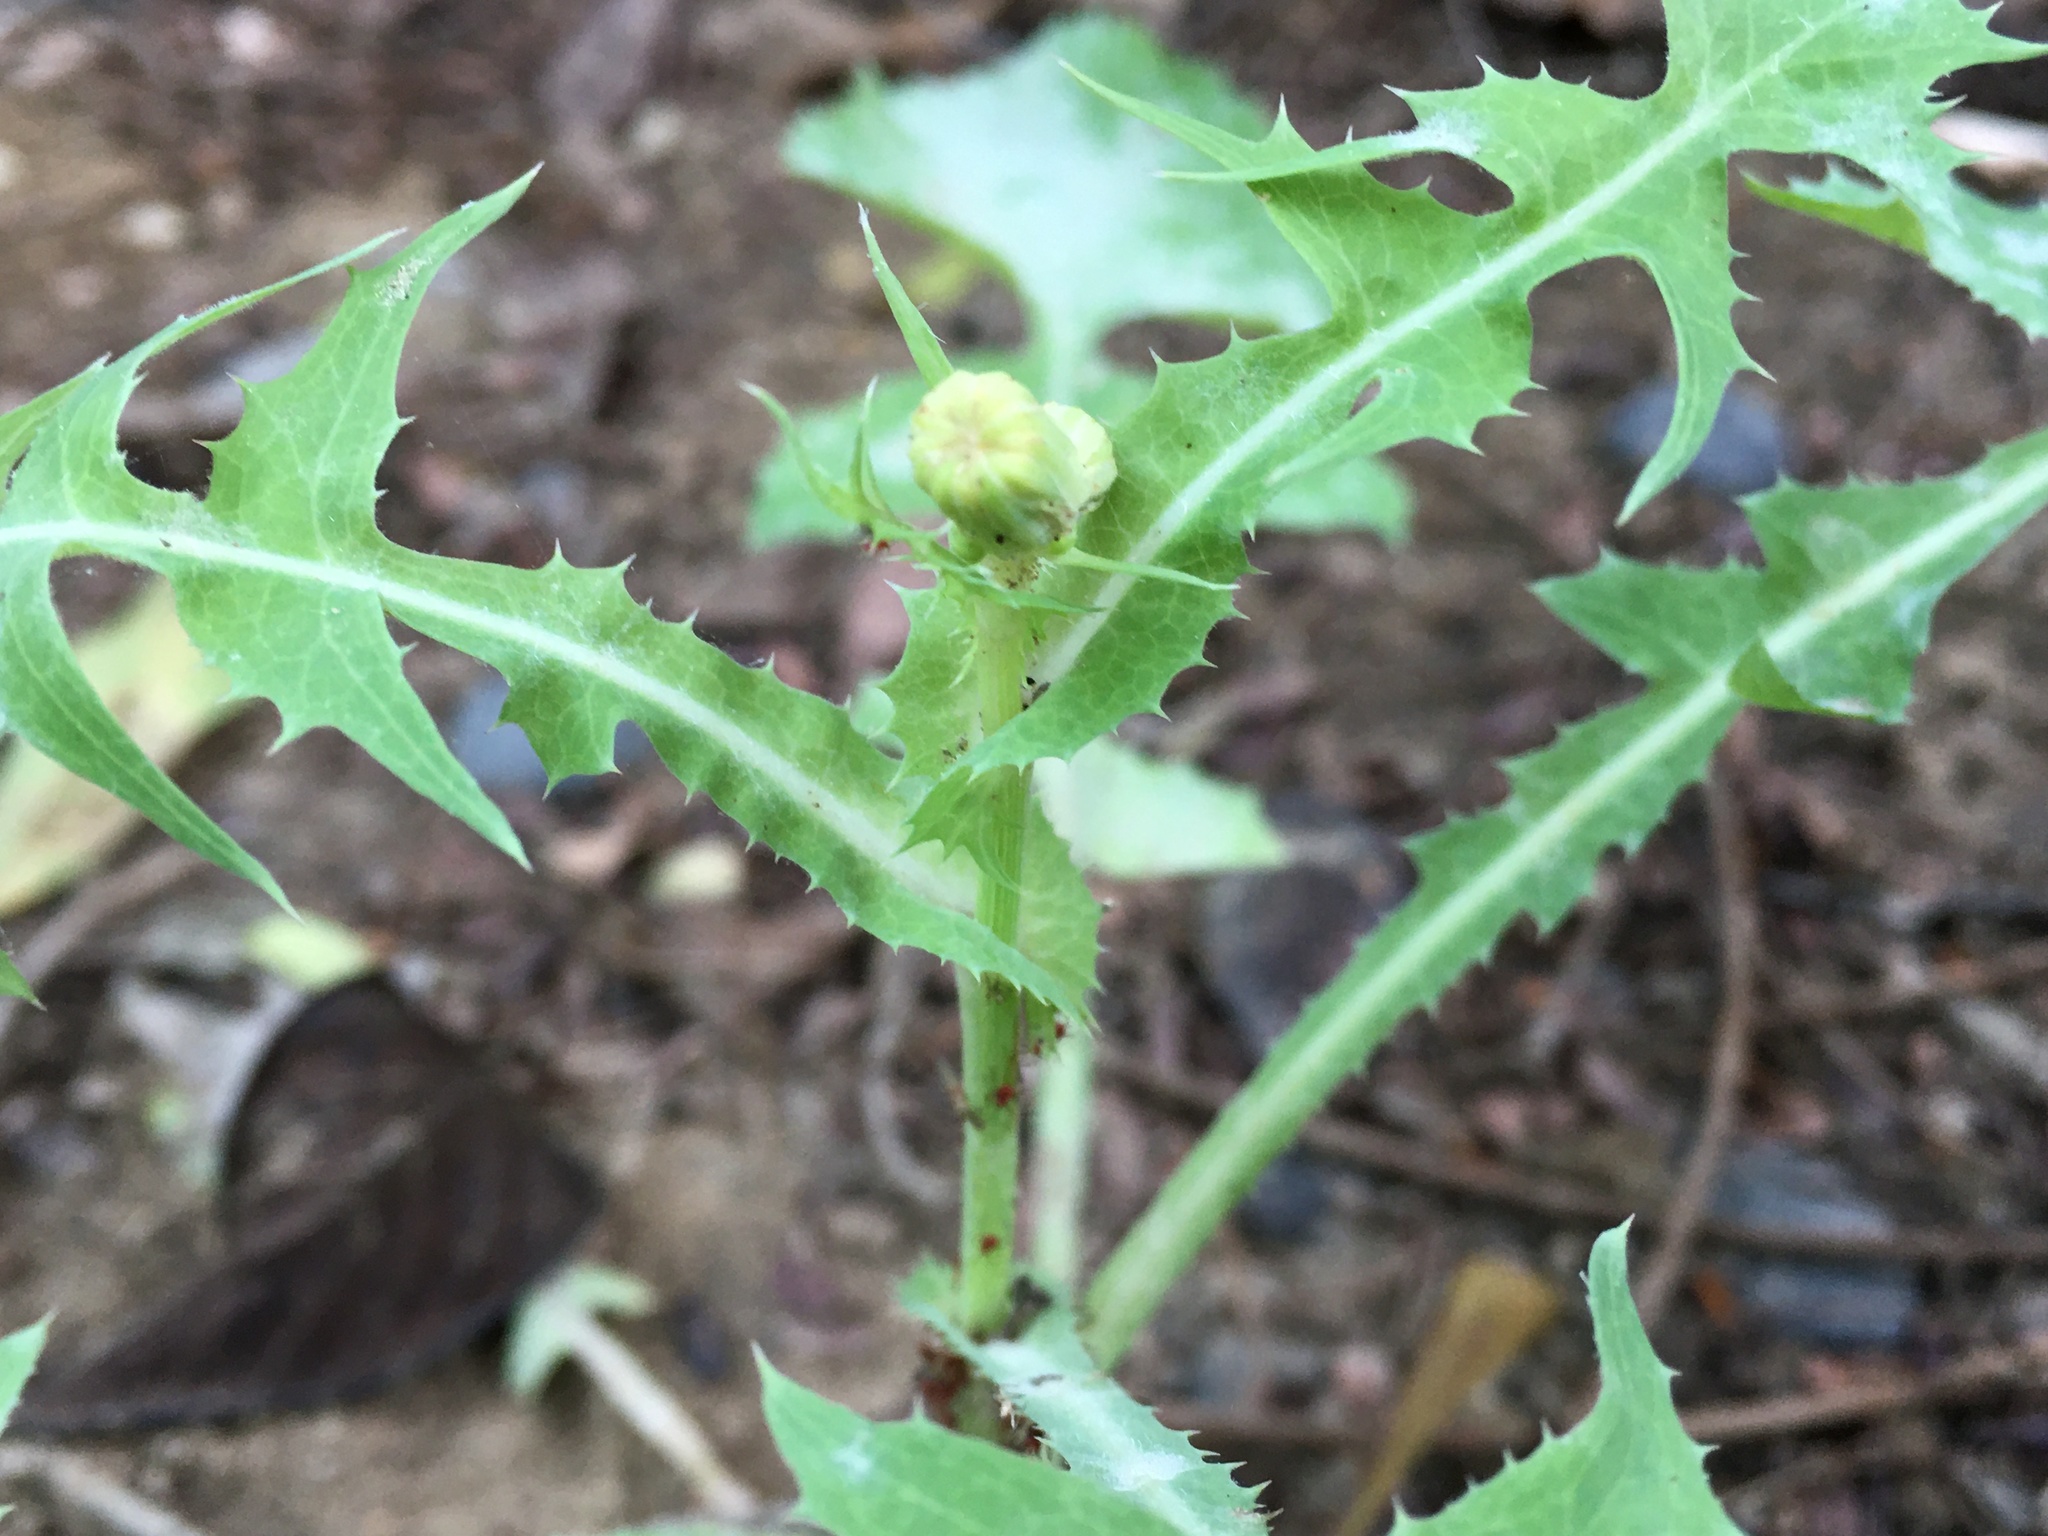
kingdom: Plantae
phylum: Tracheophyta
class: Magnoliopsida
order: Asterales
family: Asteraceae
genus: Sonchus
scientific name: Sonchus oleraceus
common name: Common sowthistle
